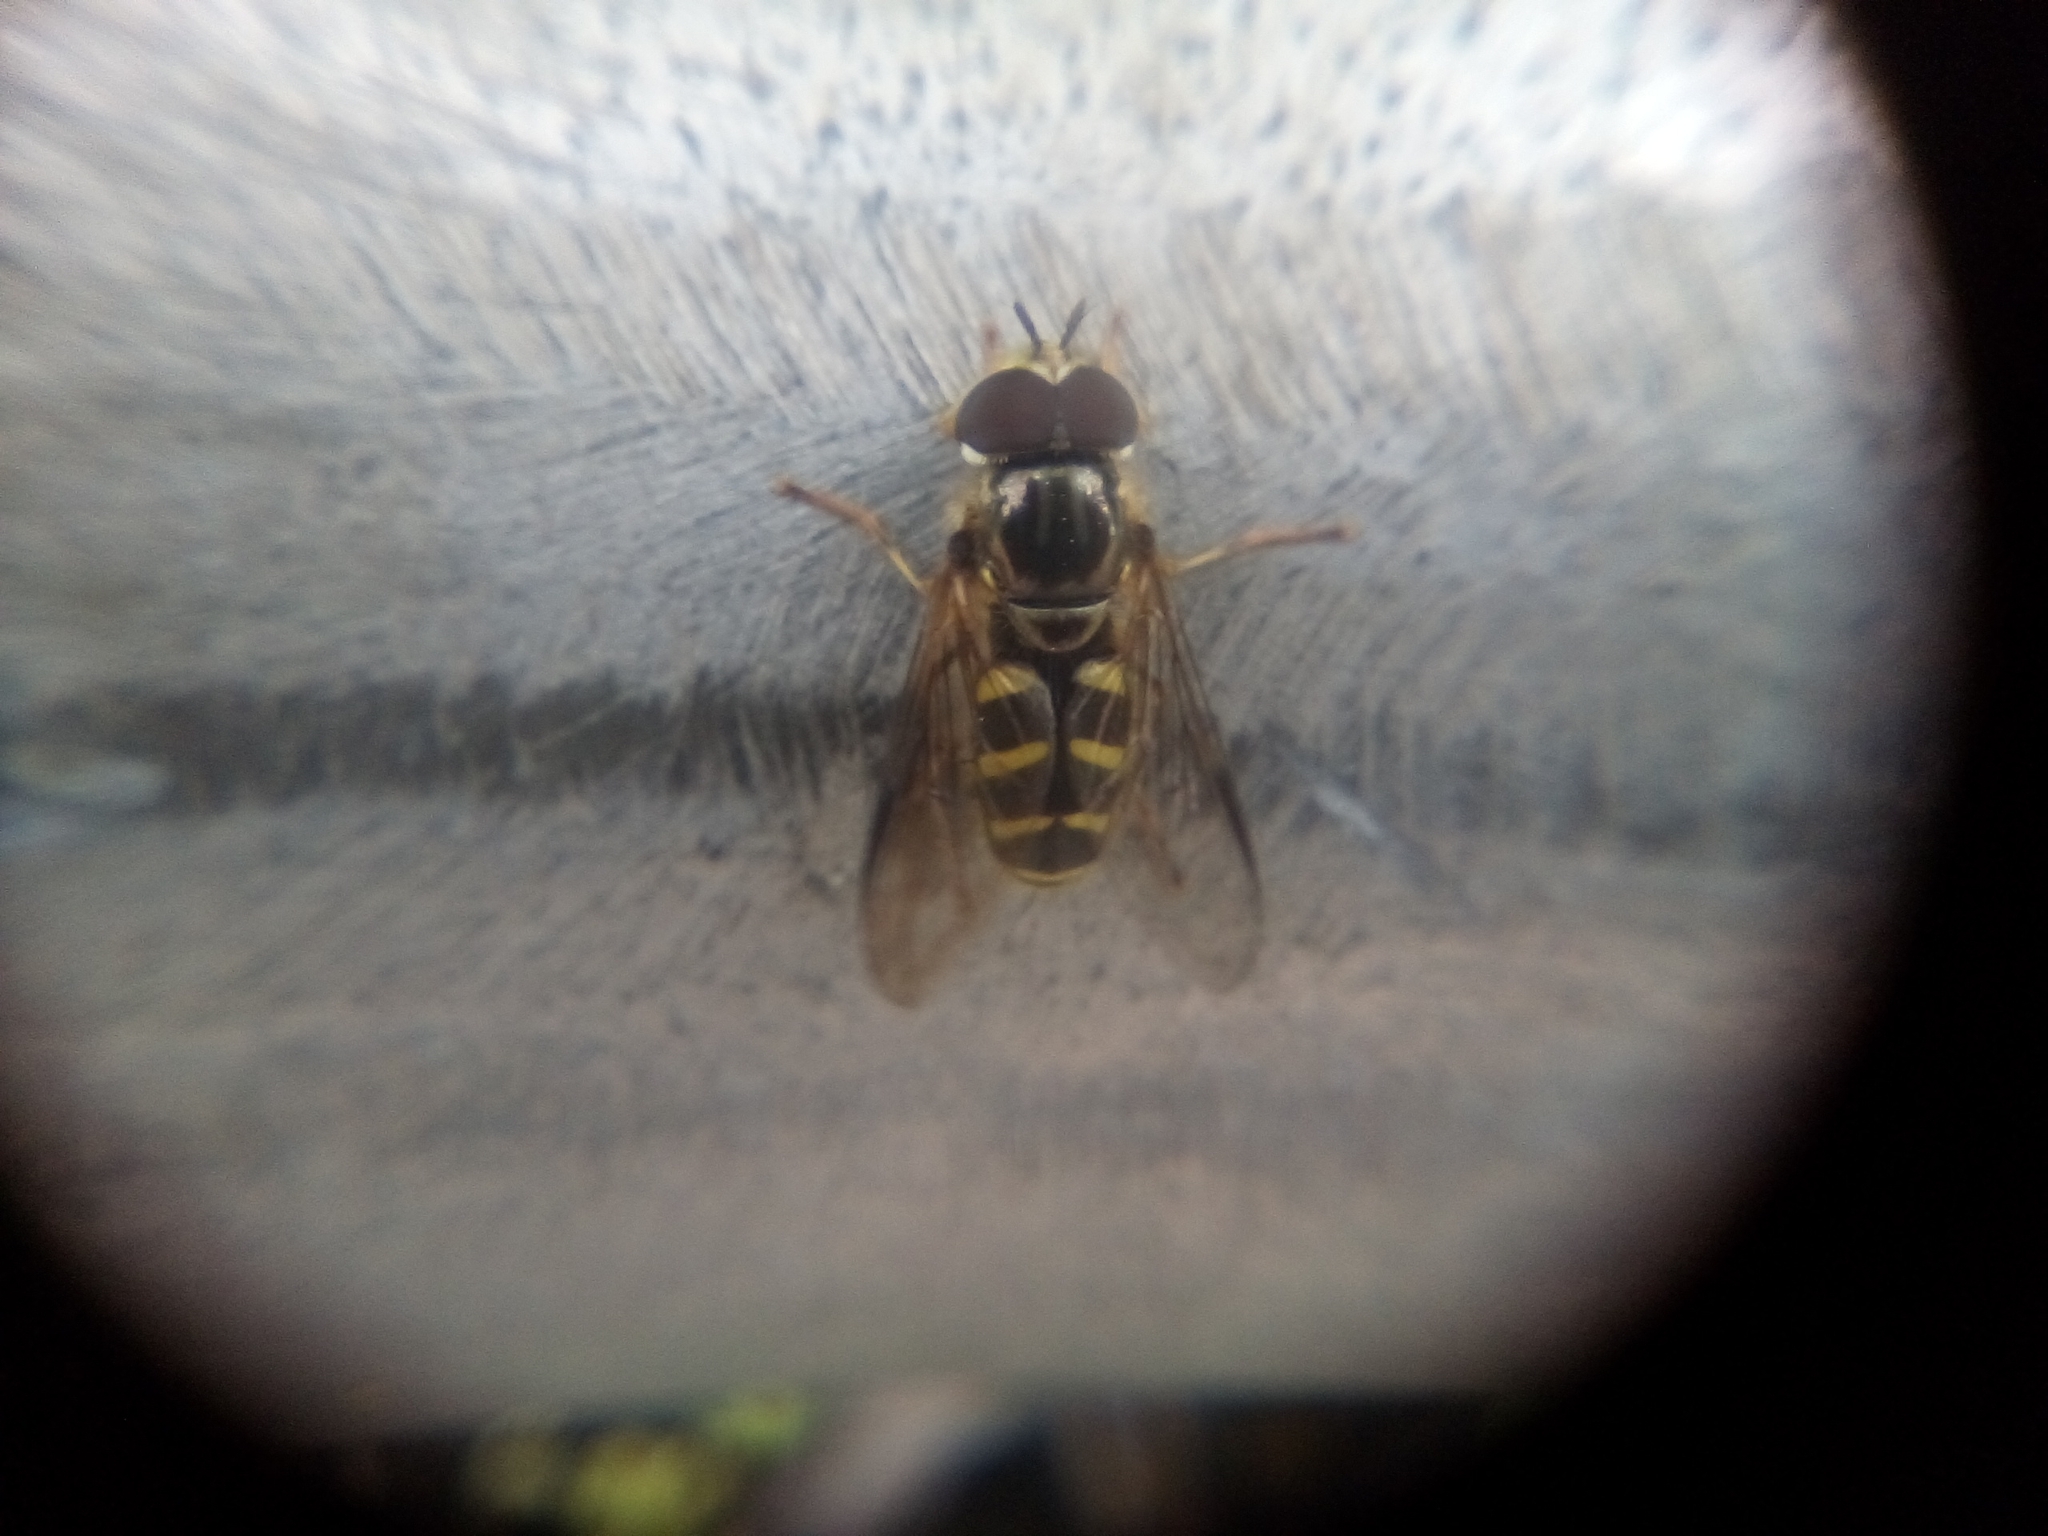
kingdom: Animalia
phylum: Arthropoda
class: Insecta
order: Diptera
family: Syrphidae
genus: Dasysyrphus
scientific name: Dasysyrphus albostriatus
